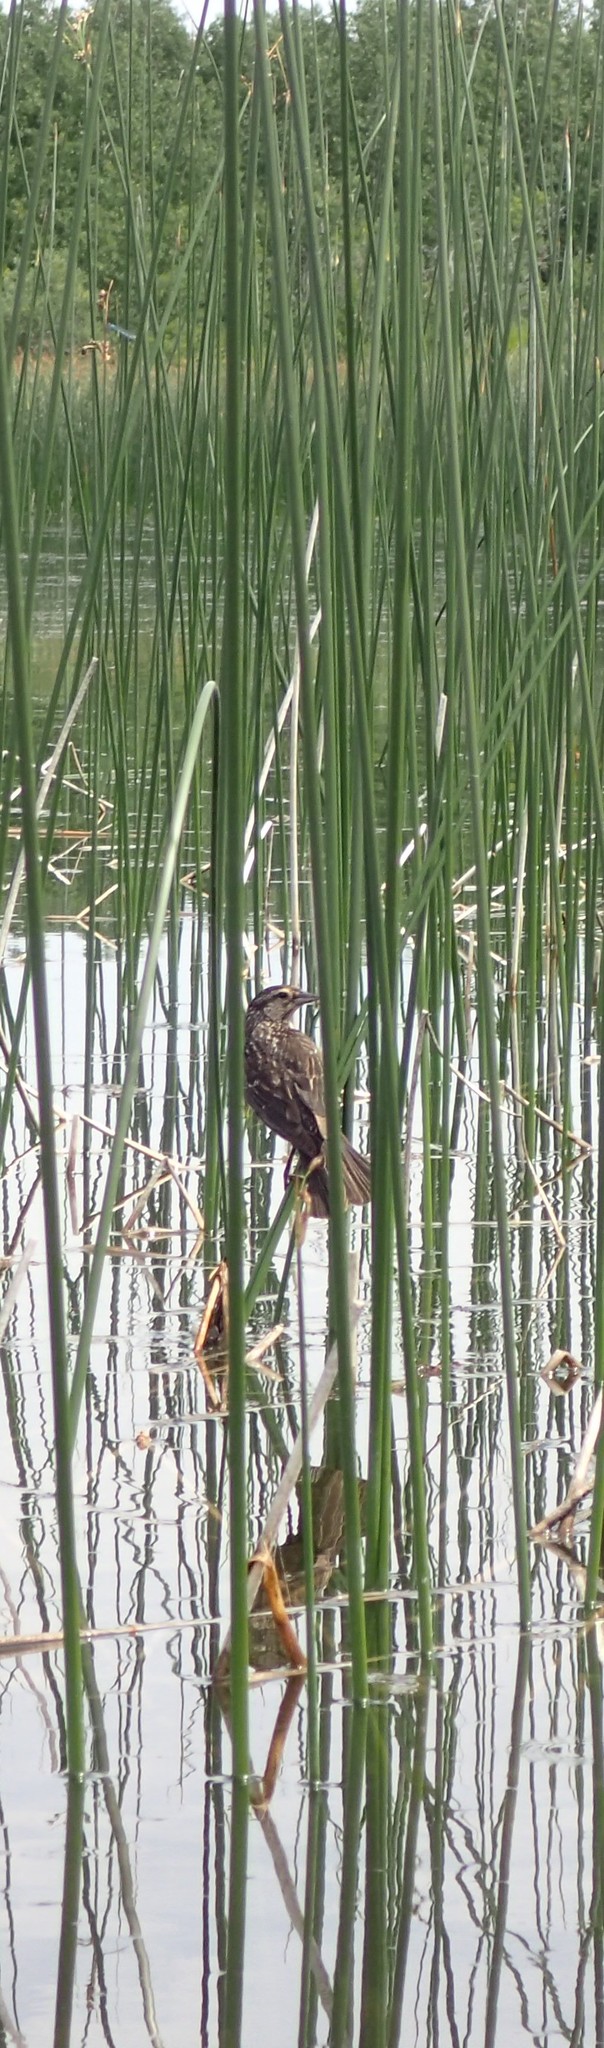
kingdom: Animalia
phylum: Chordata
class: Aves
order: Passeriformes
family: Icteridae
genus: Agelaius
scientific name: Agelaius phoeniceus
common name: Red-winged blackbird
